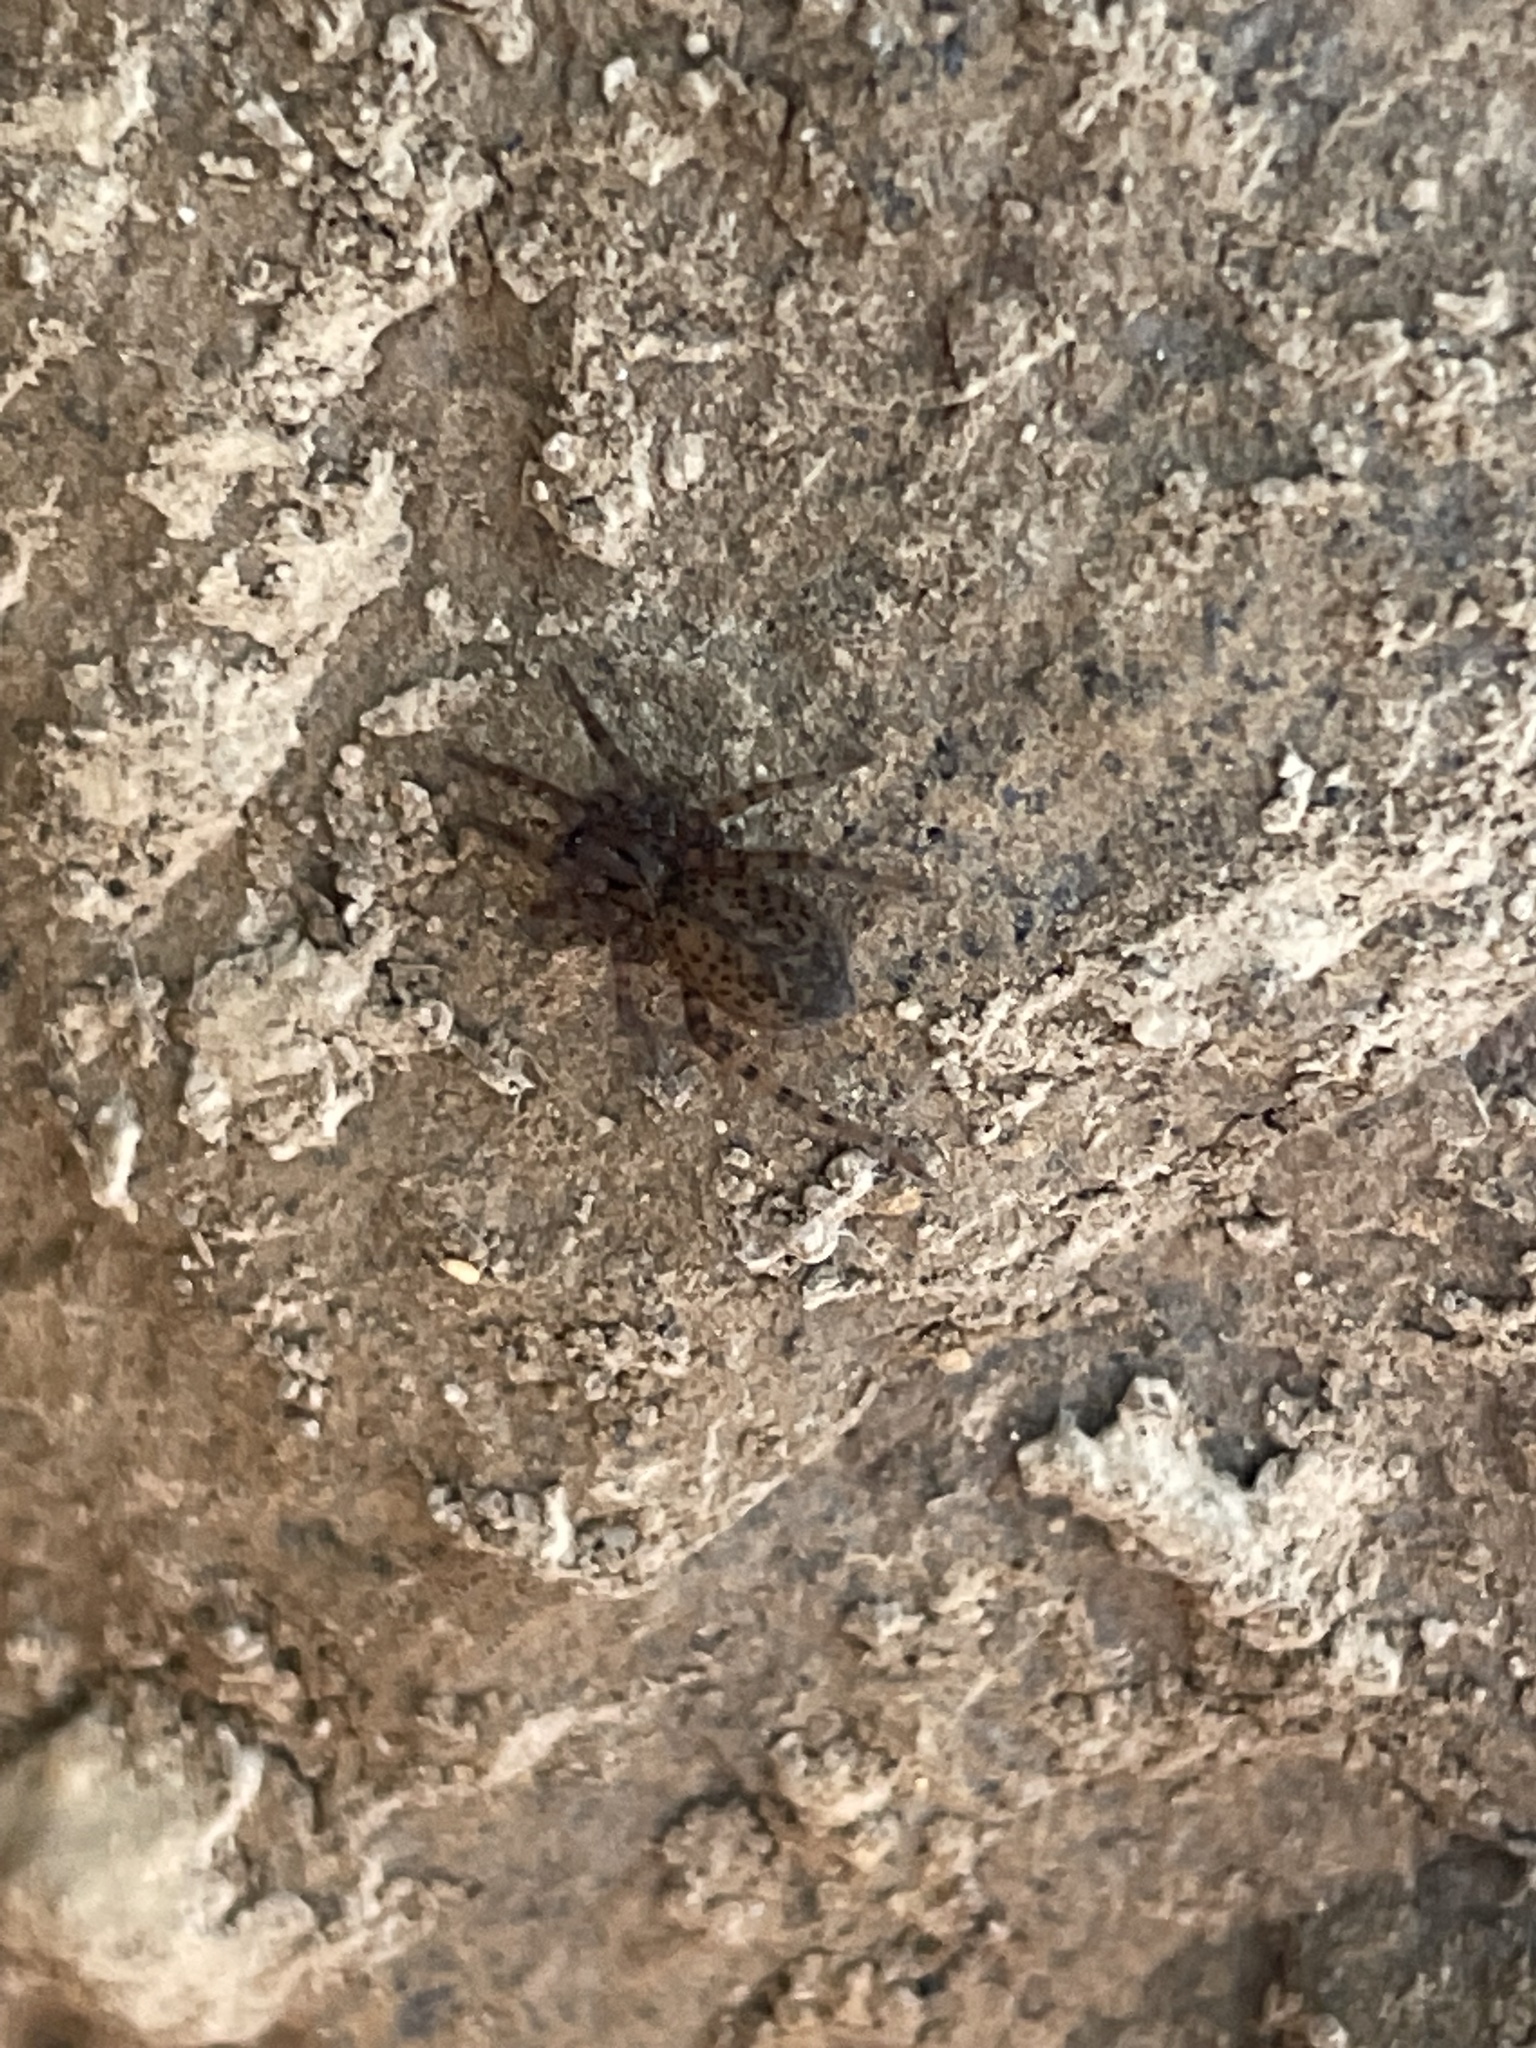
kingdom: Animalia
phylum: Arthropoda
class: Arachnida
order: Araneae
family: Agelenidae
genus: Coras
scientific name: Coras
